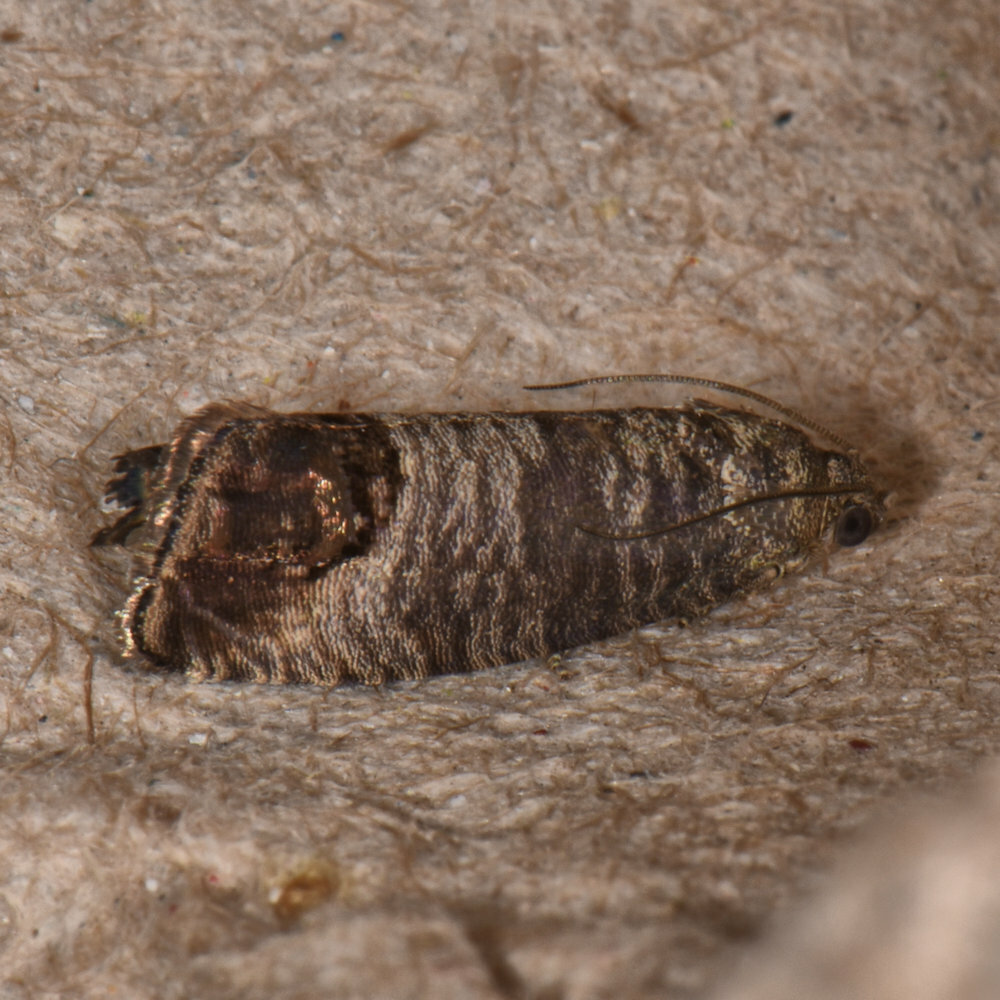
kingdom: Animalia
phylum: Arthropoda
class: Insecta
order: Lepidoptera
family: Tortricidae
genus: Cydia
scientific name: Cydia pomonella
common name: Codling moth
